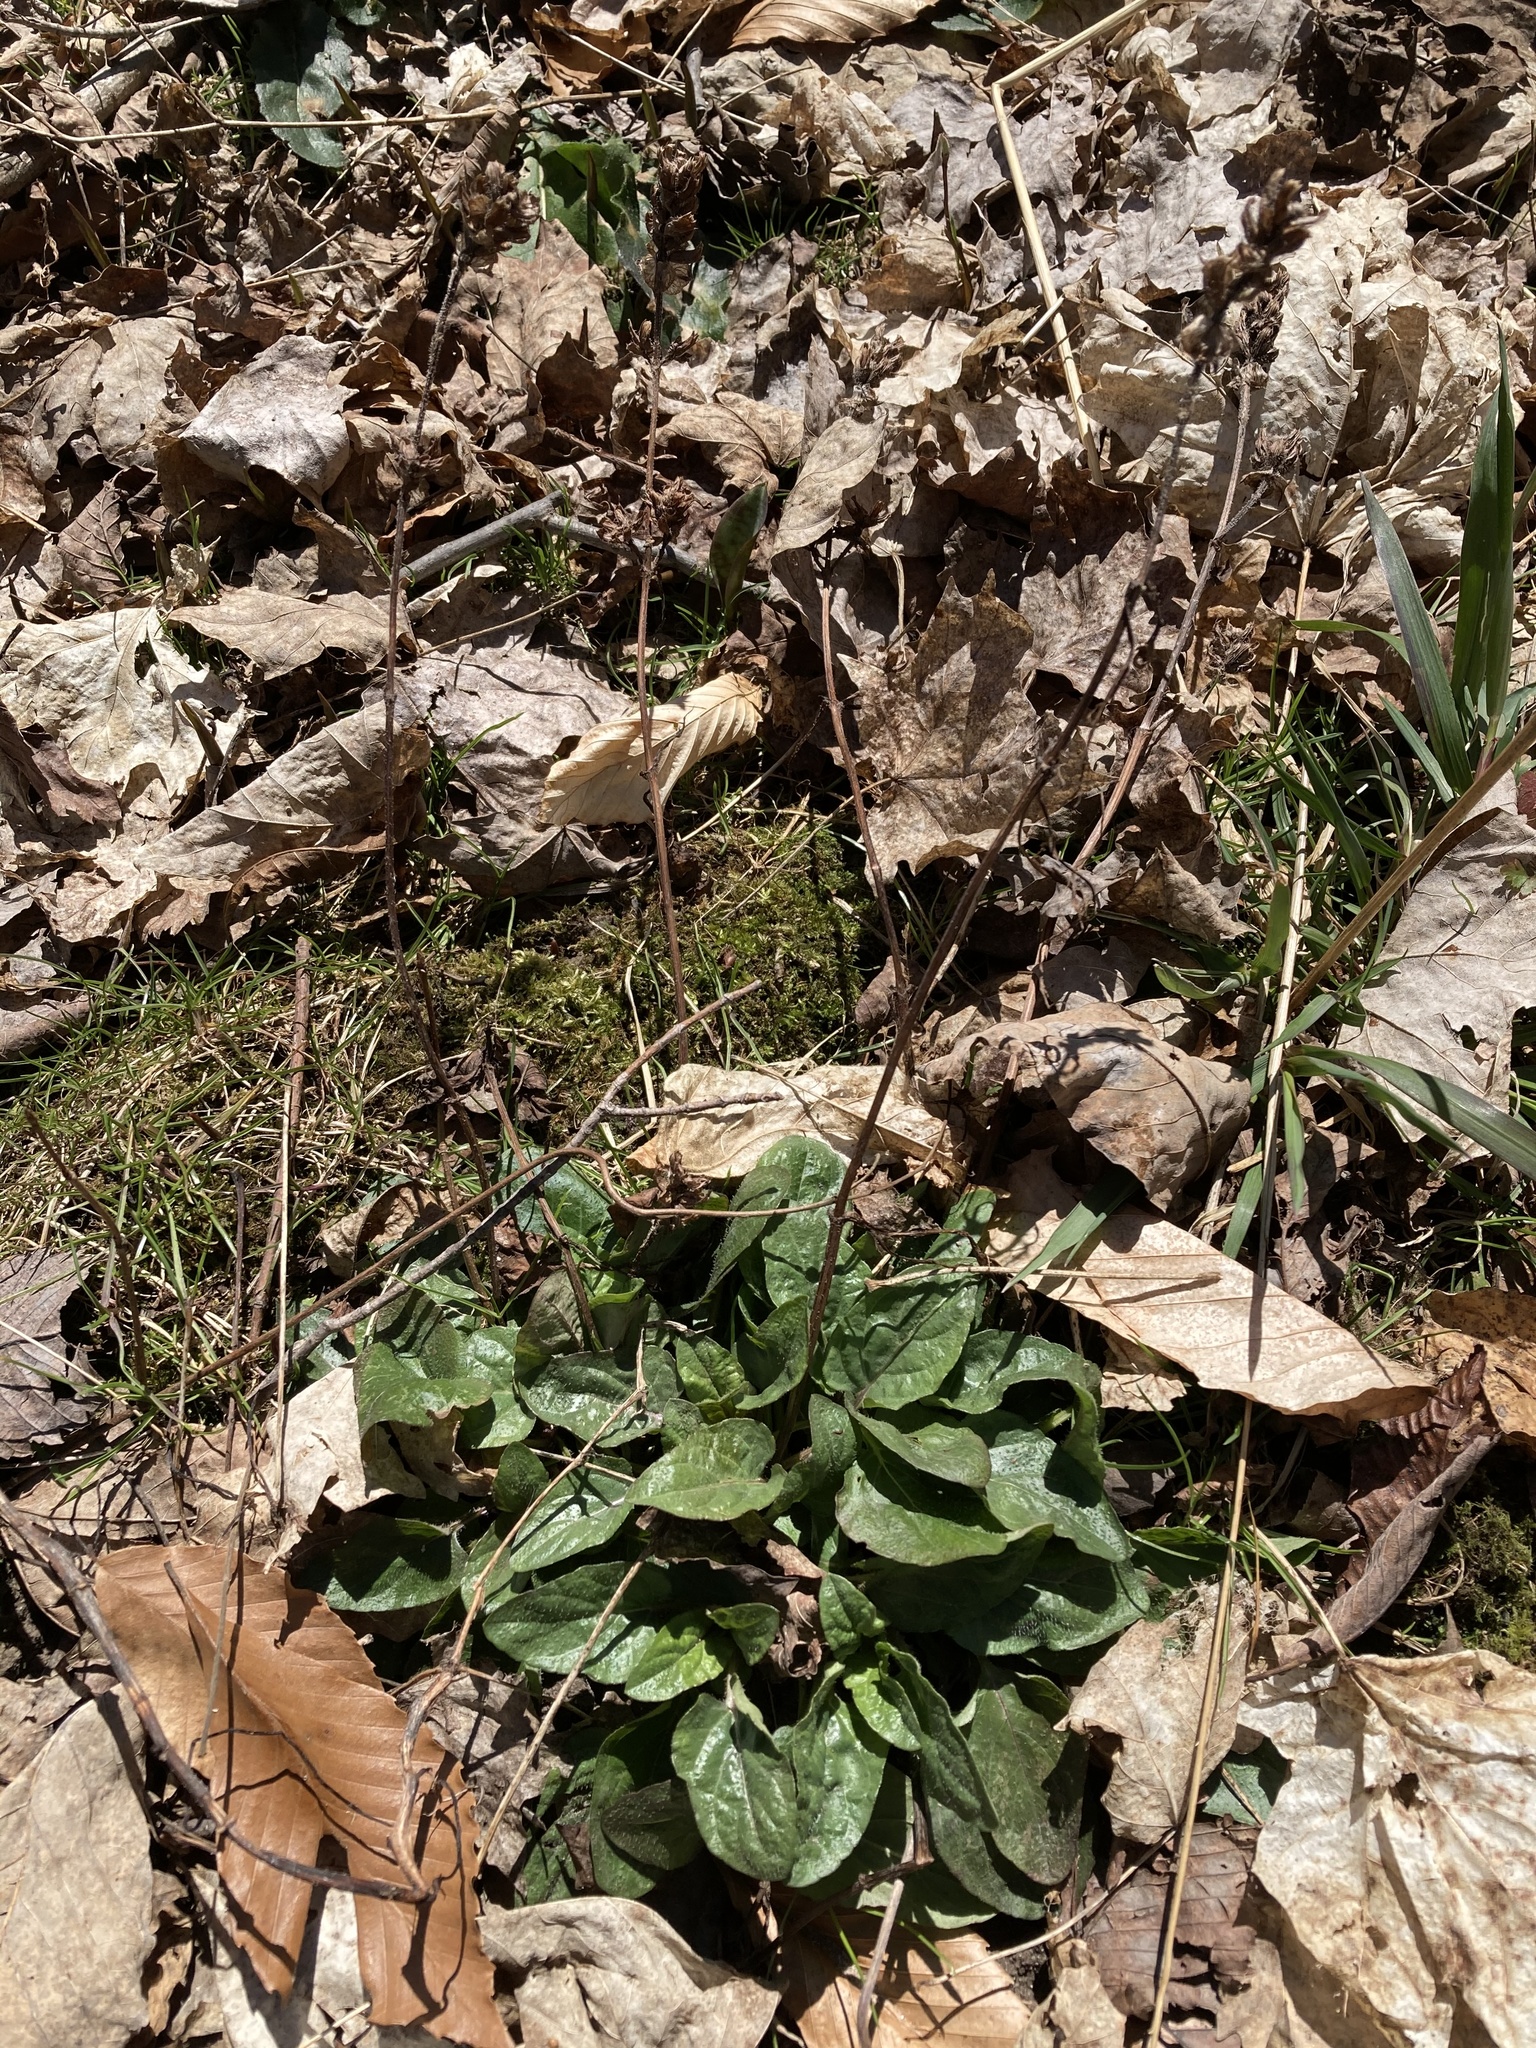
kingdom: Plantae
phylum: Tracheophyta
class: Magnoliopsida
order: Lamiales
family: Lamiaceae
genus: Prunella
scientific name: Prunella vulgaris
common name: Heal-all
